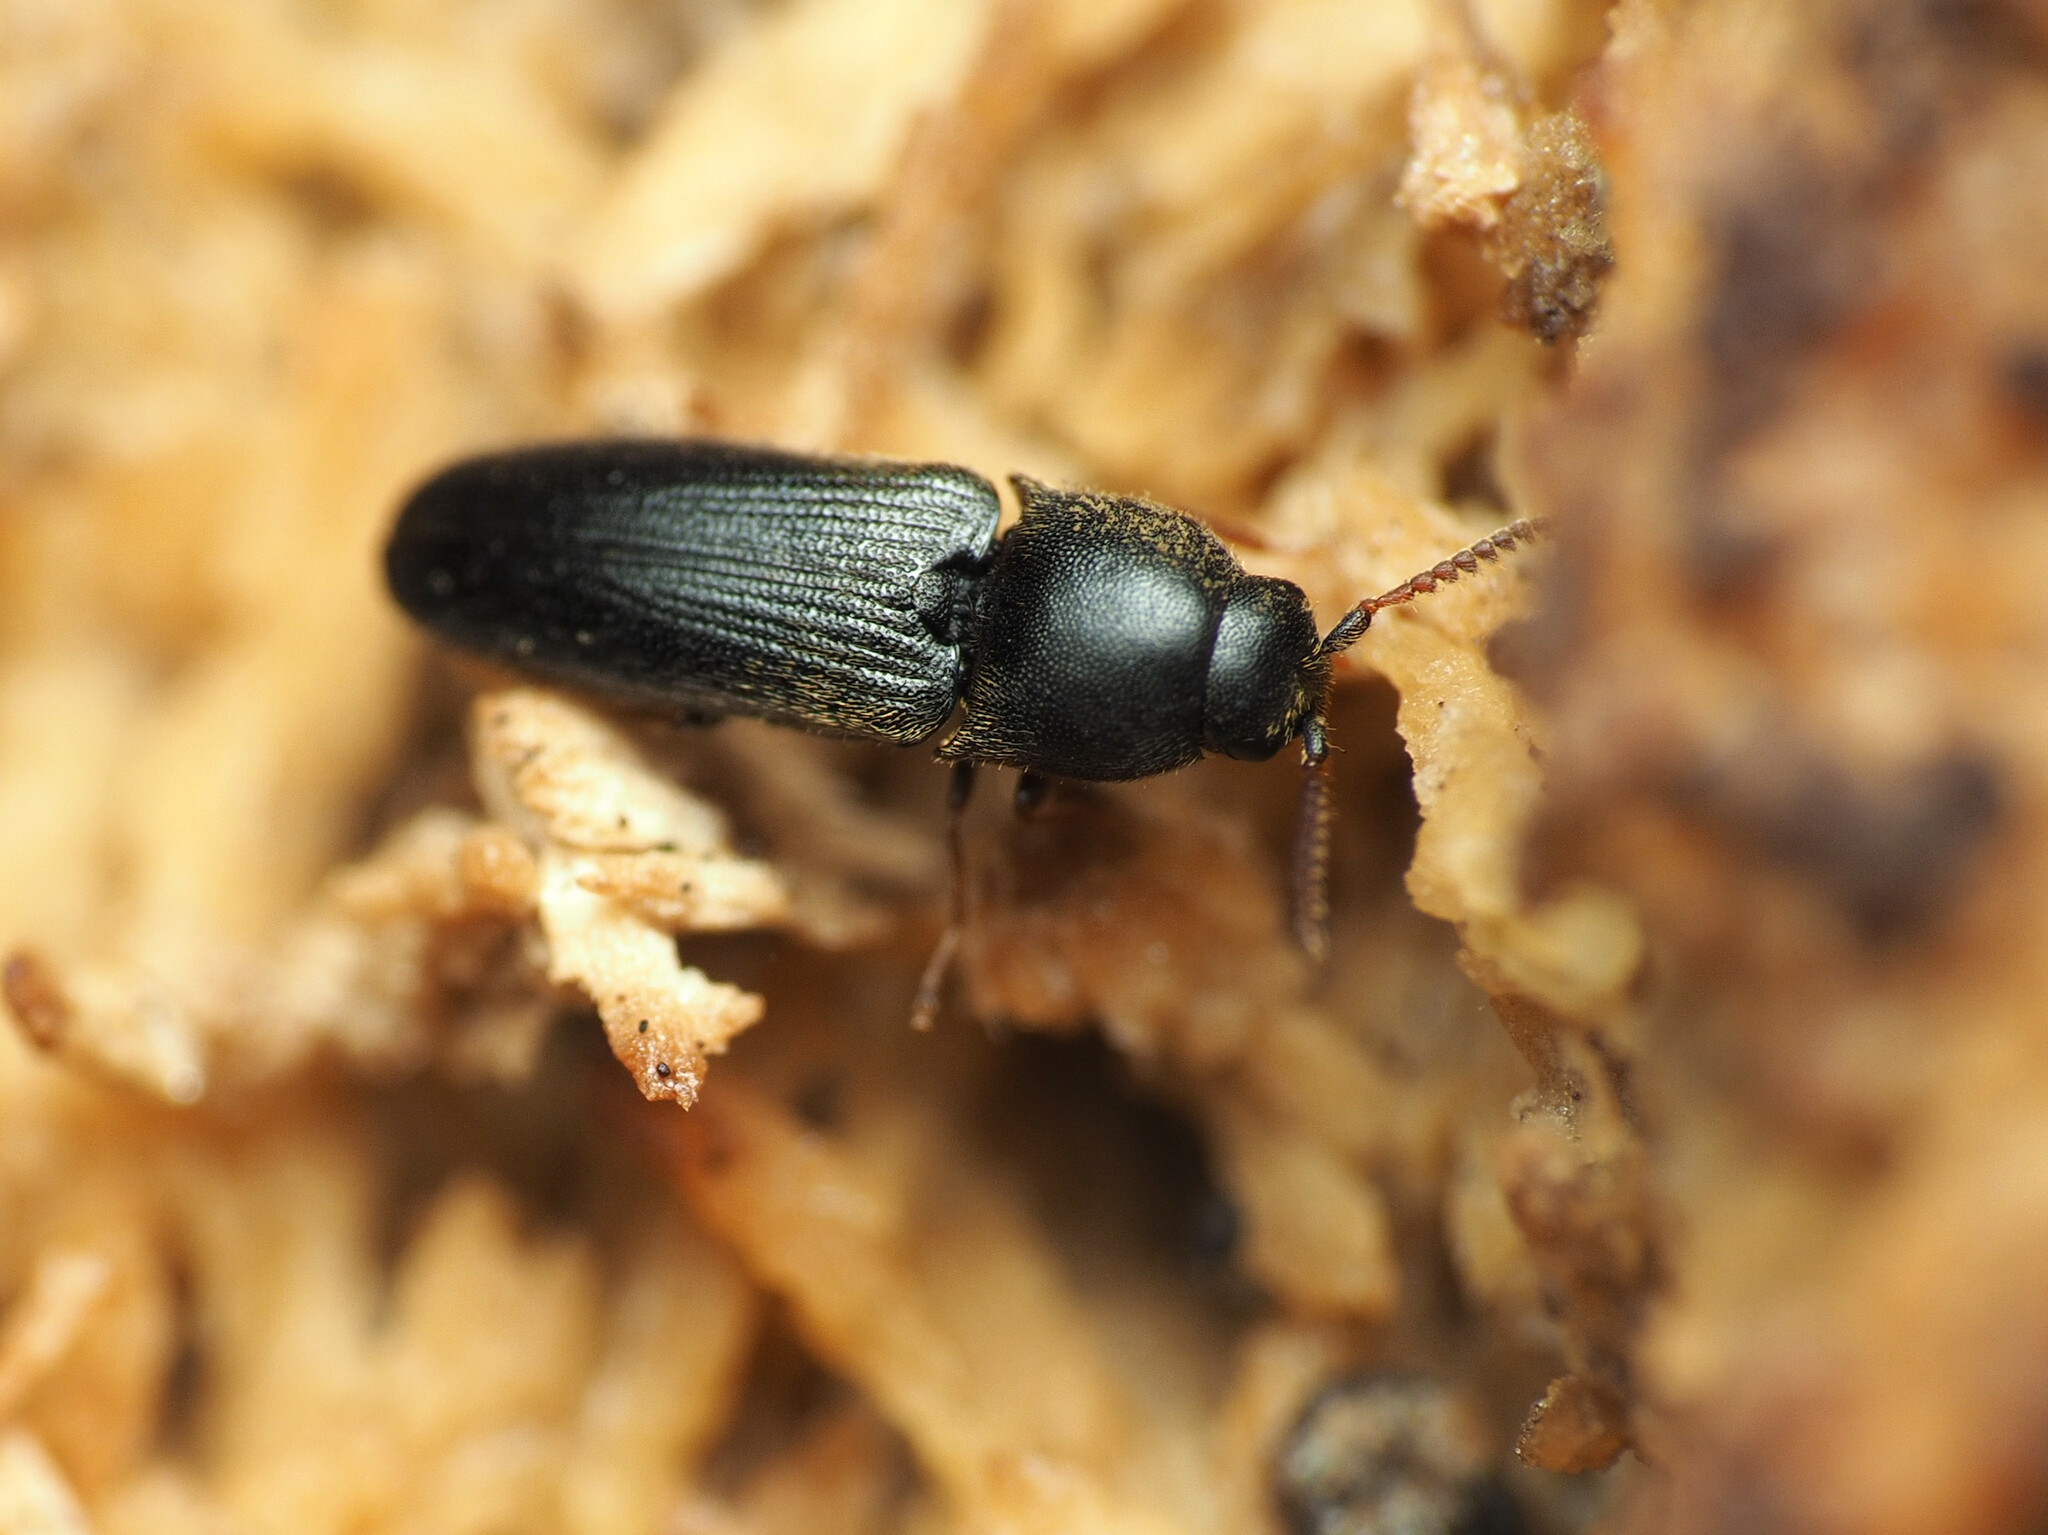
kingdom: Animalia
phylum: Arthropoda
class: Insecta
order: Coleoptera
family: Eucnemidae
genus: Deltometopus
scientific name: Deltometopus amoenicornis
